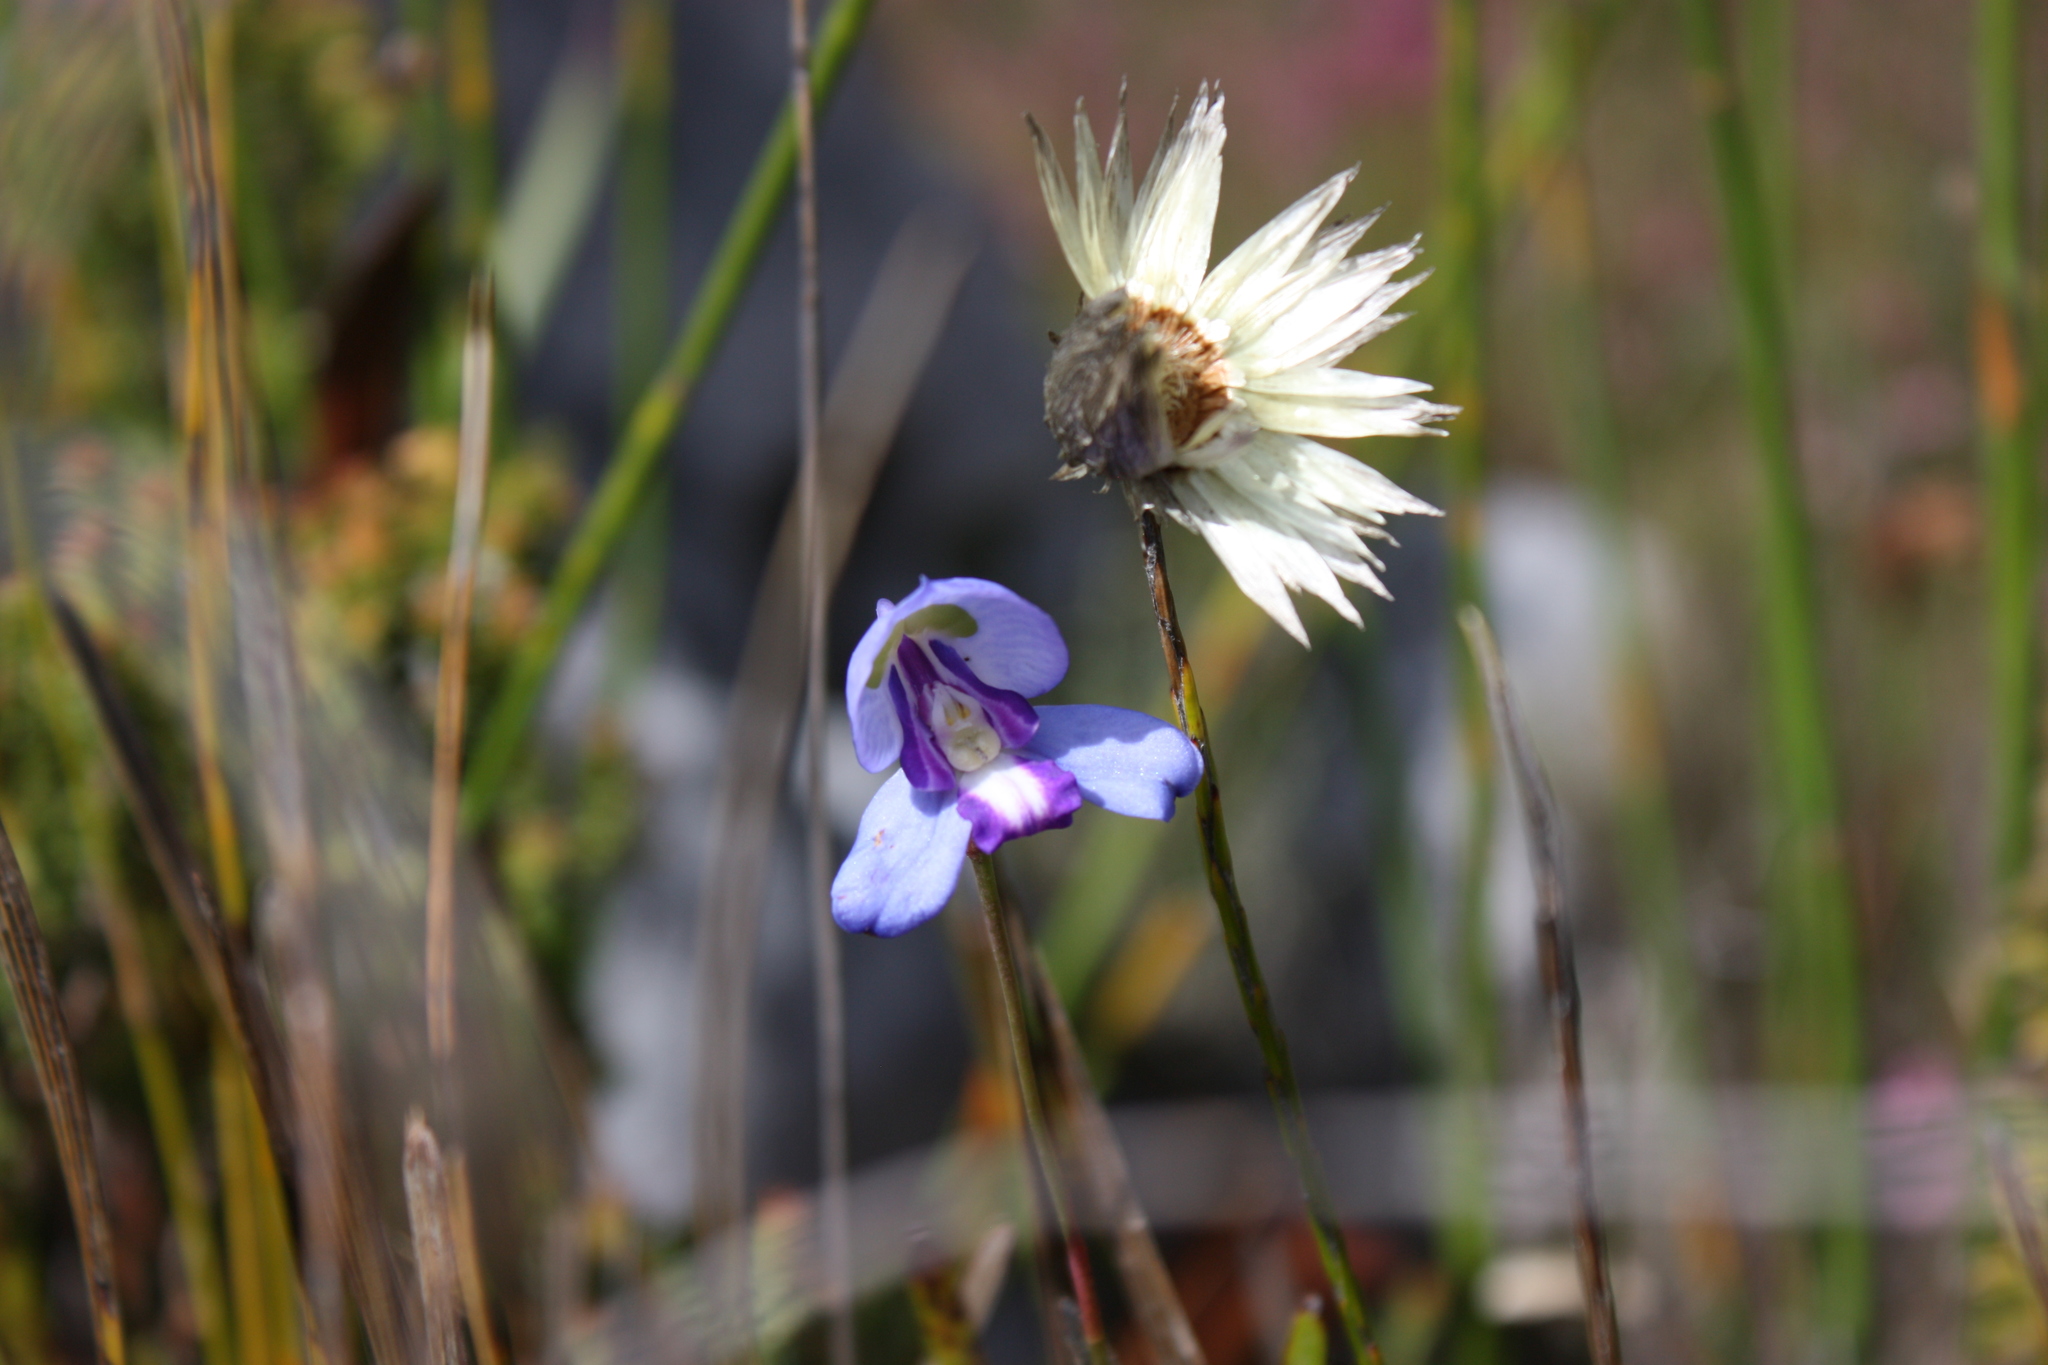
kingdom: Plantae
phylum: Tracheophyta
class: Liliopsida
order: Asparagales
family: Orchidaceae
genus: Disa
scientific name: Disa graminifolia
